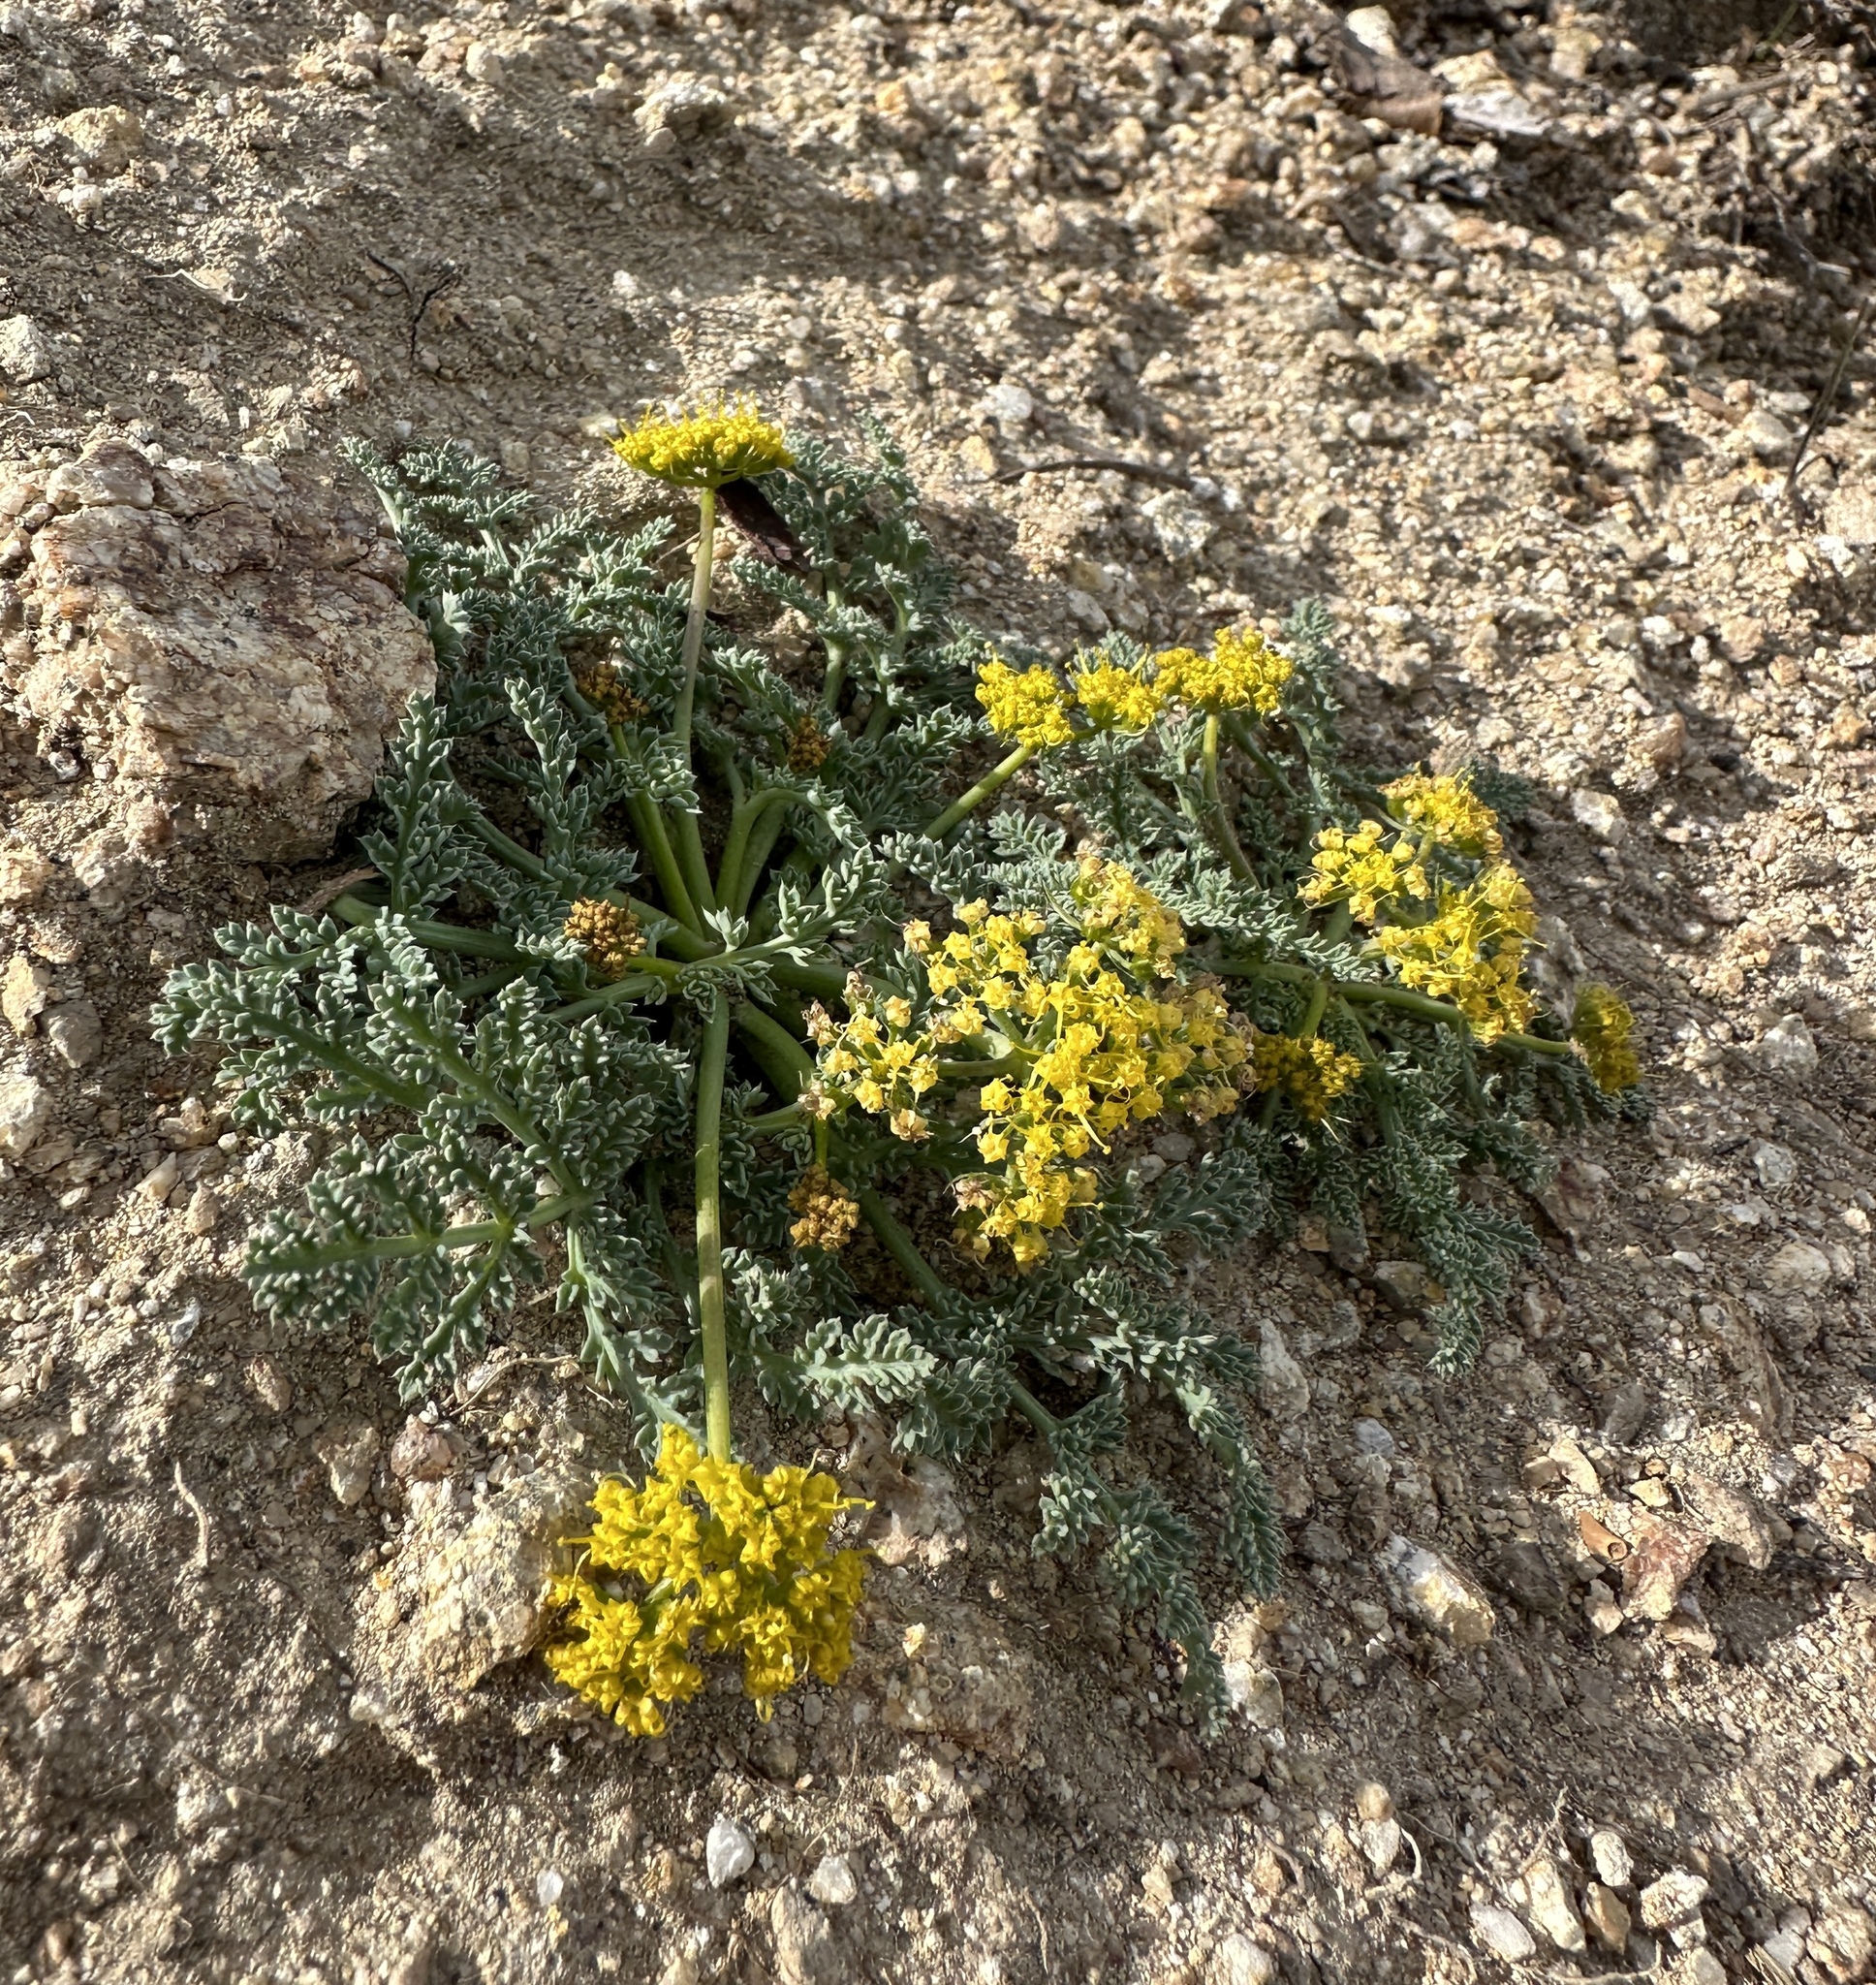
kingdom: Plantae
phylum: Tracheophyta
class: Magnoliopsida
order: Apiales
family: Apiaceae
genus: Aulospermum
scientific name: Aulospermum glaucum
